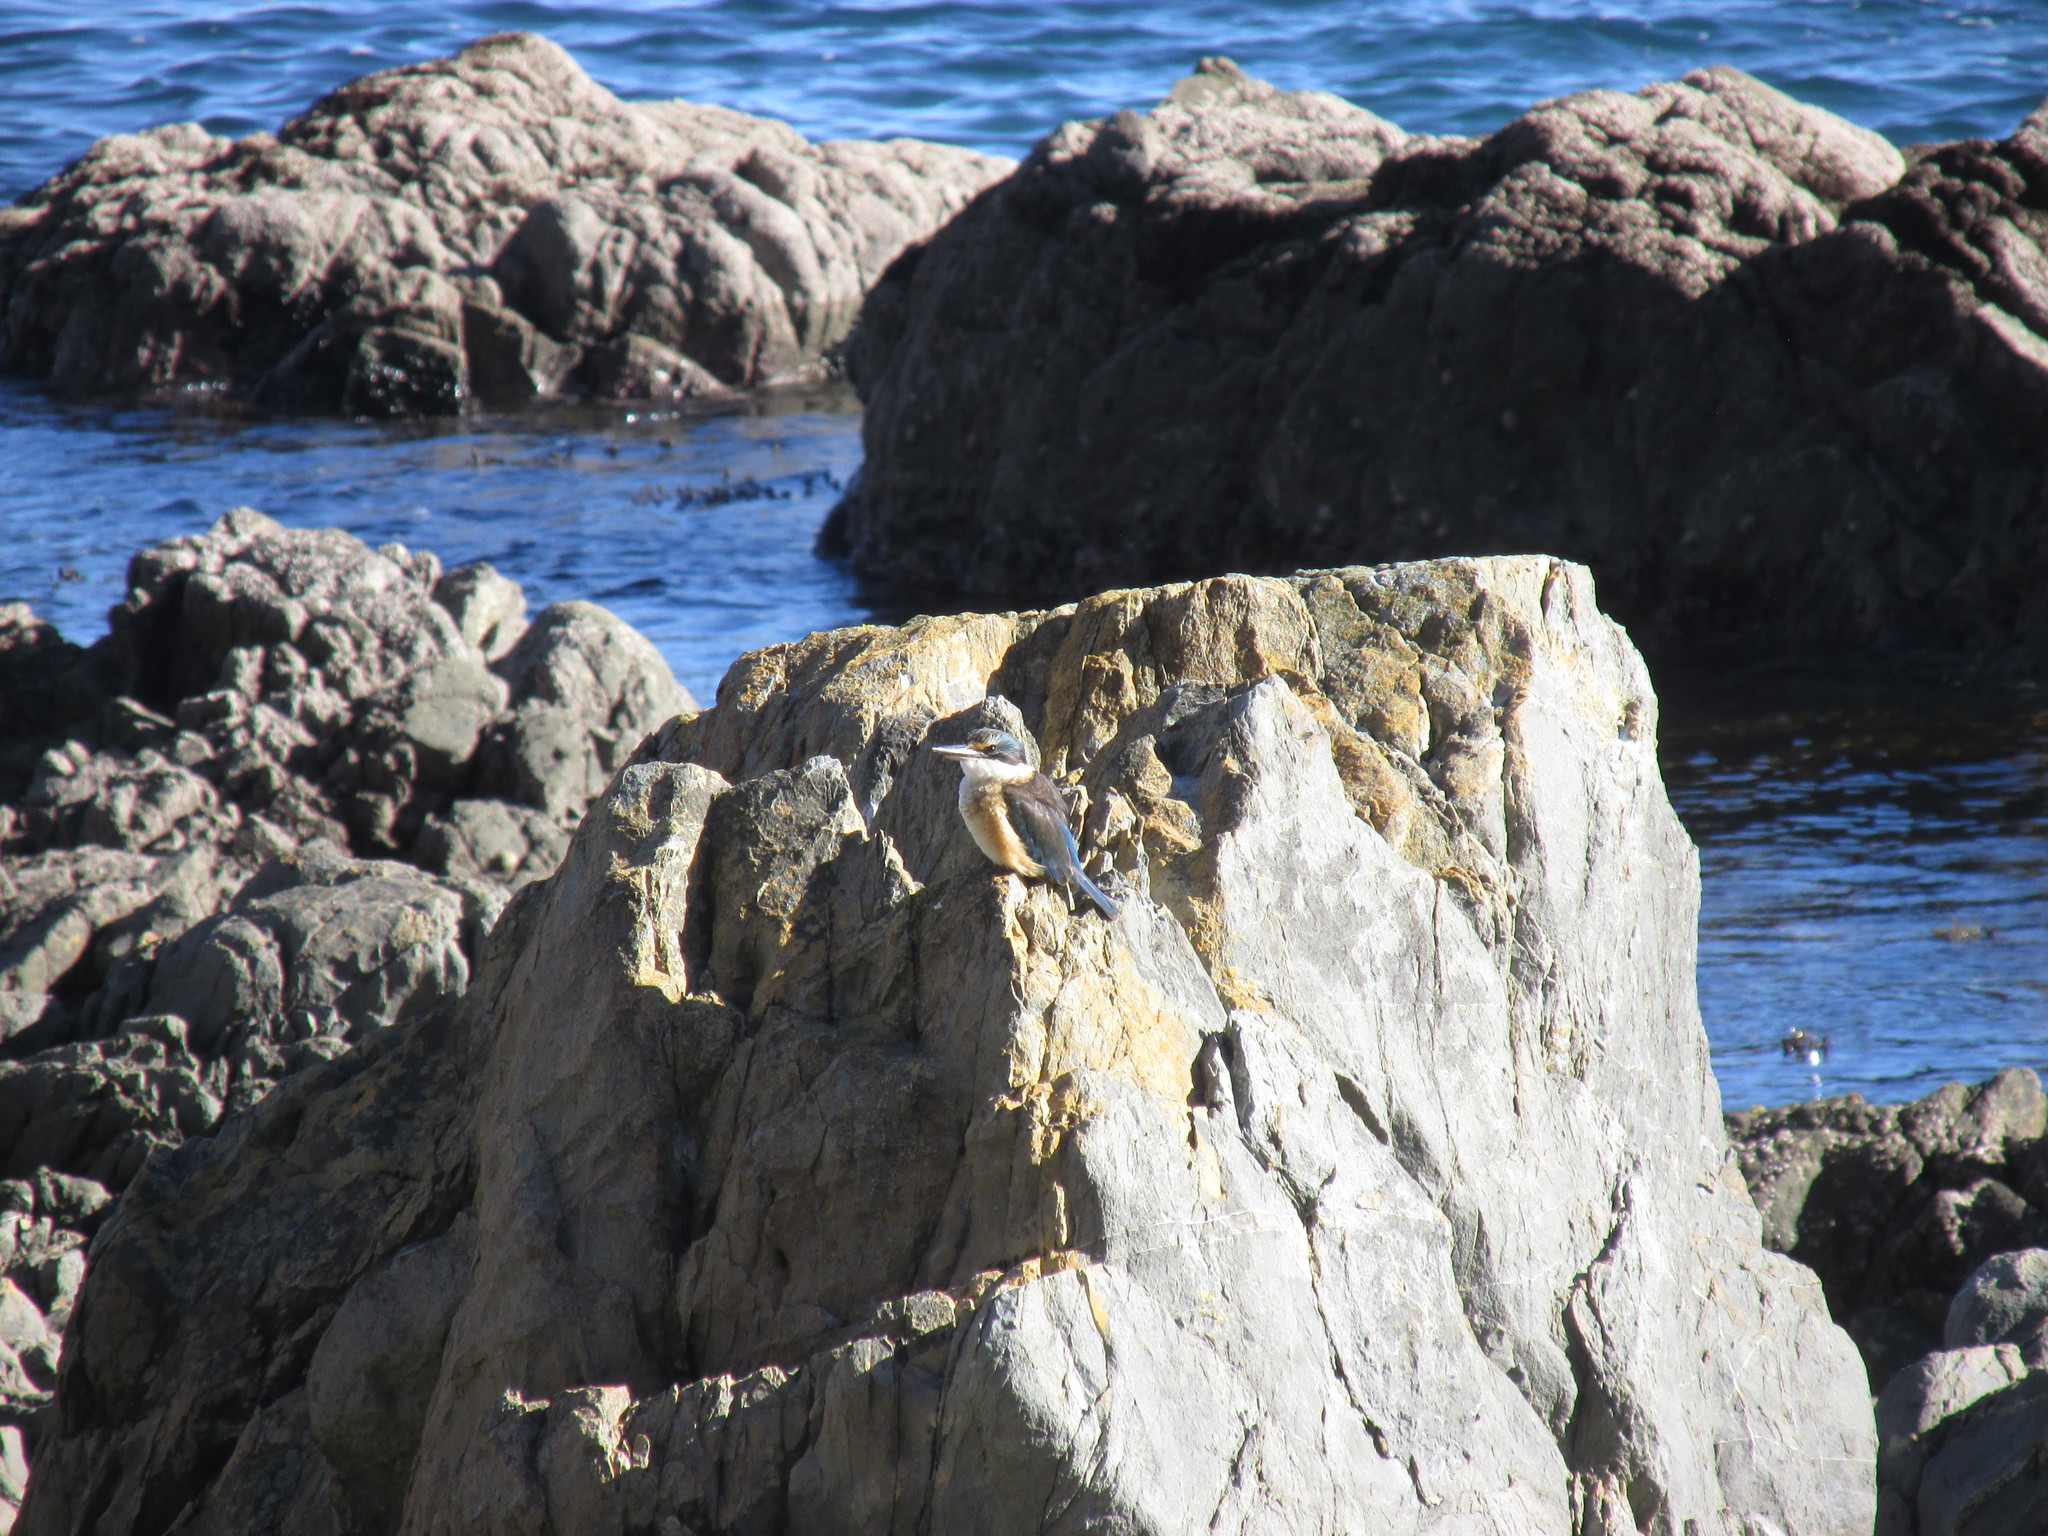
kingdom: Animalia
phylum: Chordata
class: Aves
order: Coraciiformes
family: Alcedinidae
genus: Todiramphus
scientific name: Todiramphus sanctus
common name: Sacred kingfisher
